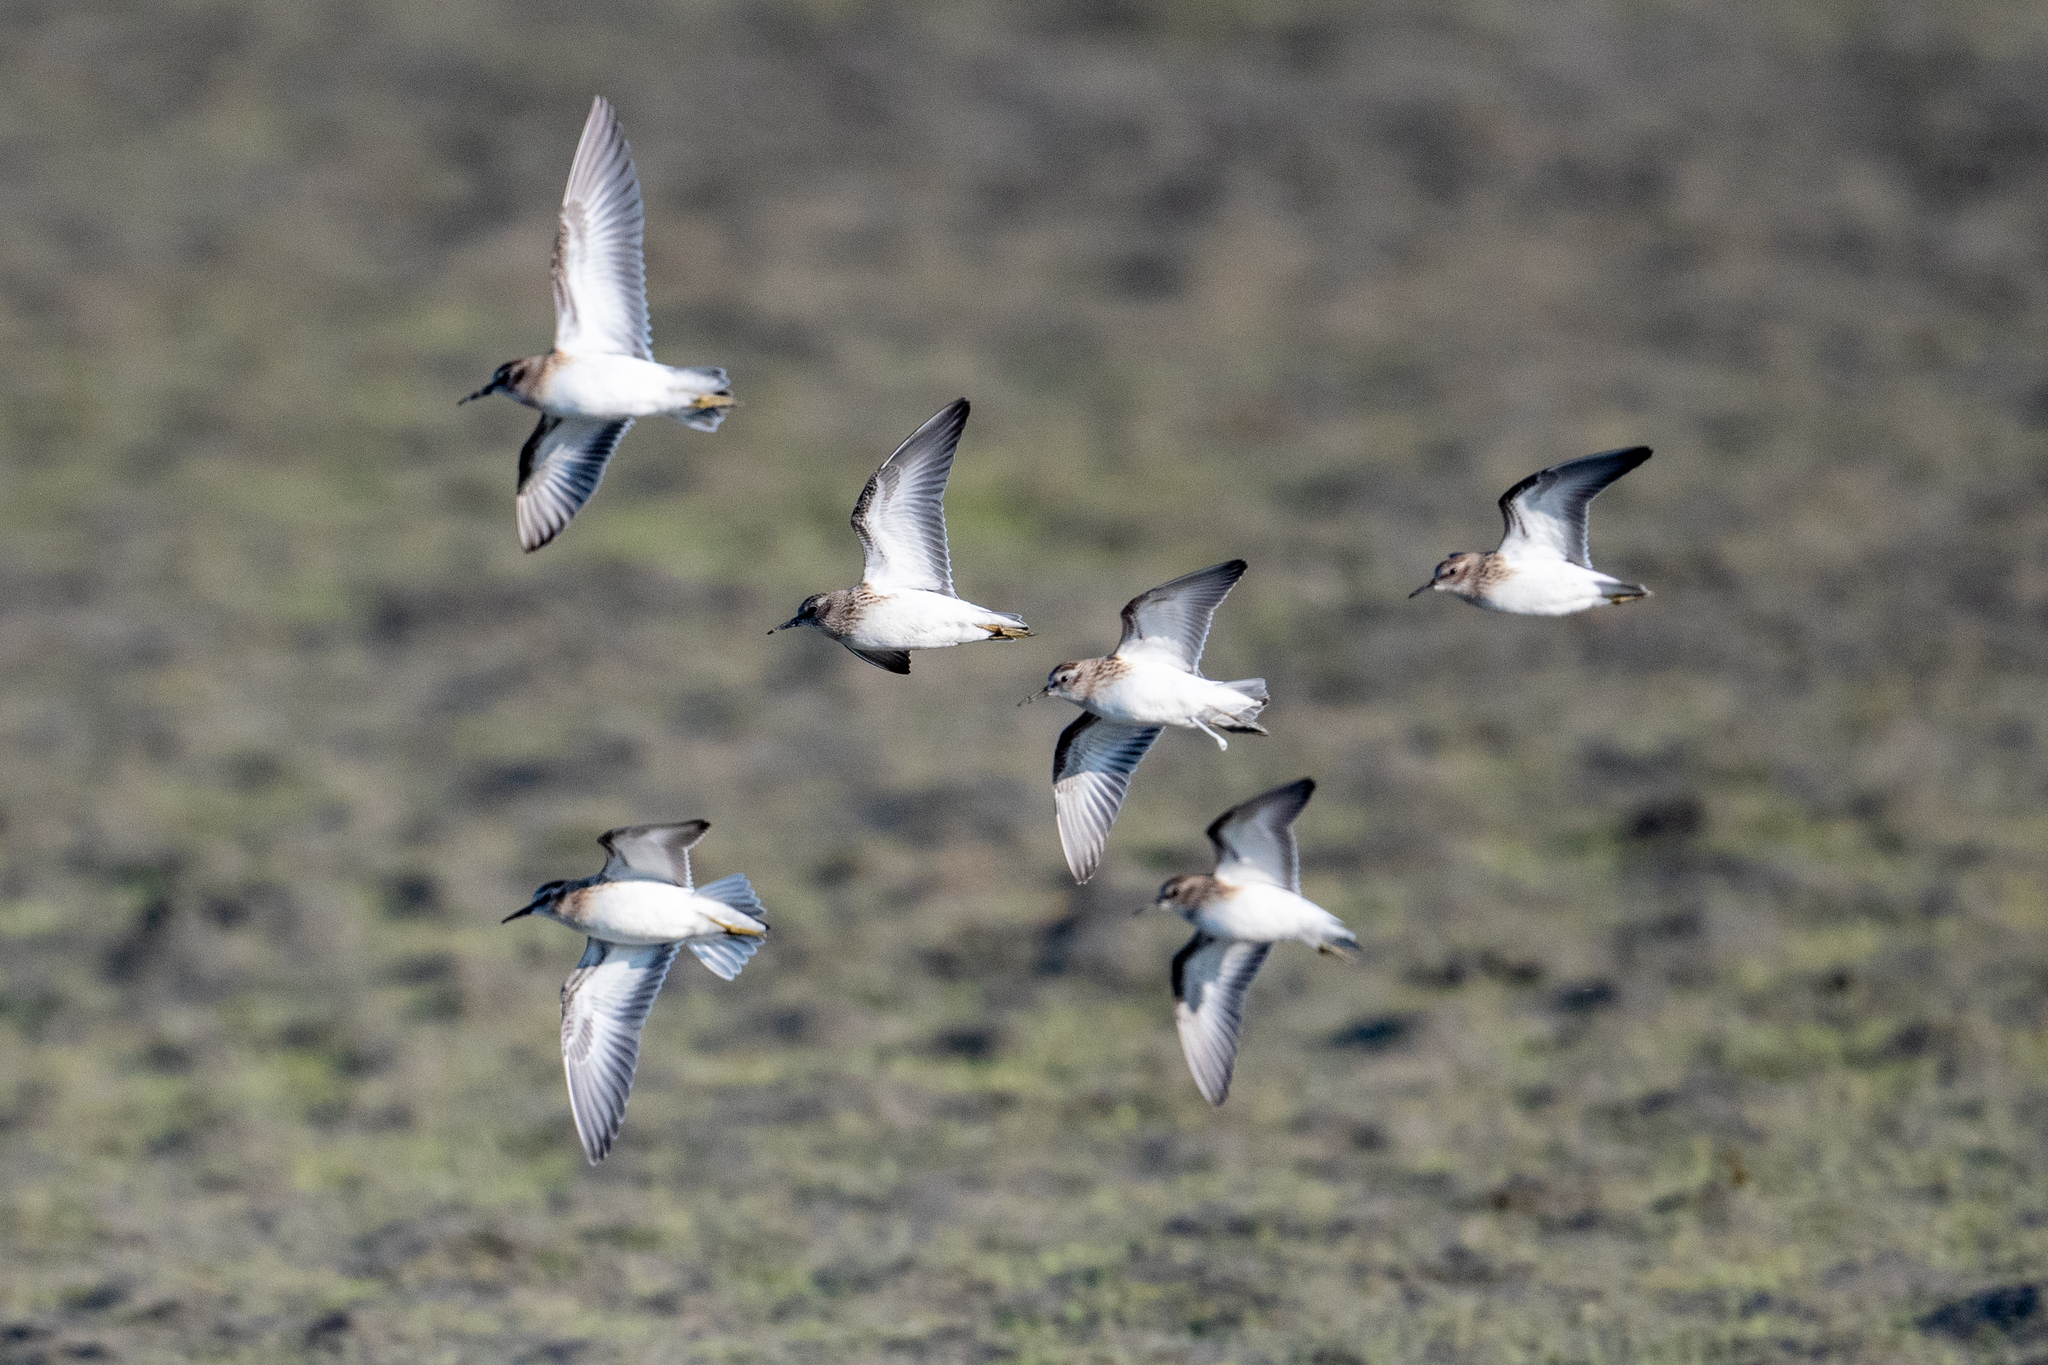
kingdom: Animalia
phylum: Chordata
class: Aves
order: Charadriiformes
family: Scolopacidae
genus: Calidris
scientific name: Calidris minutilla
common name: Least sandpiper
